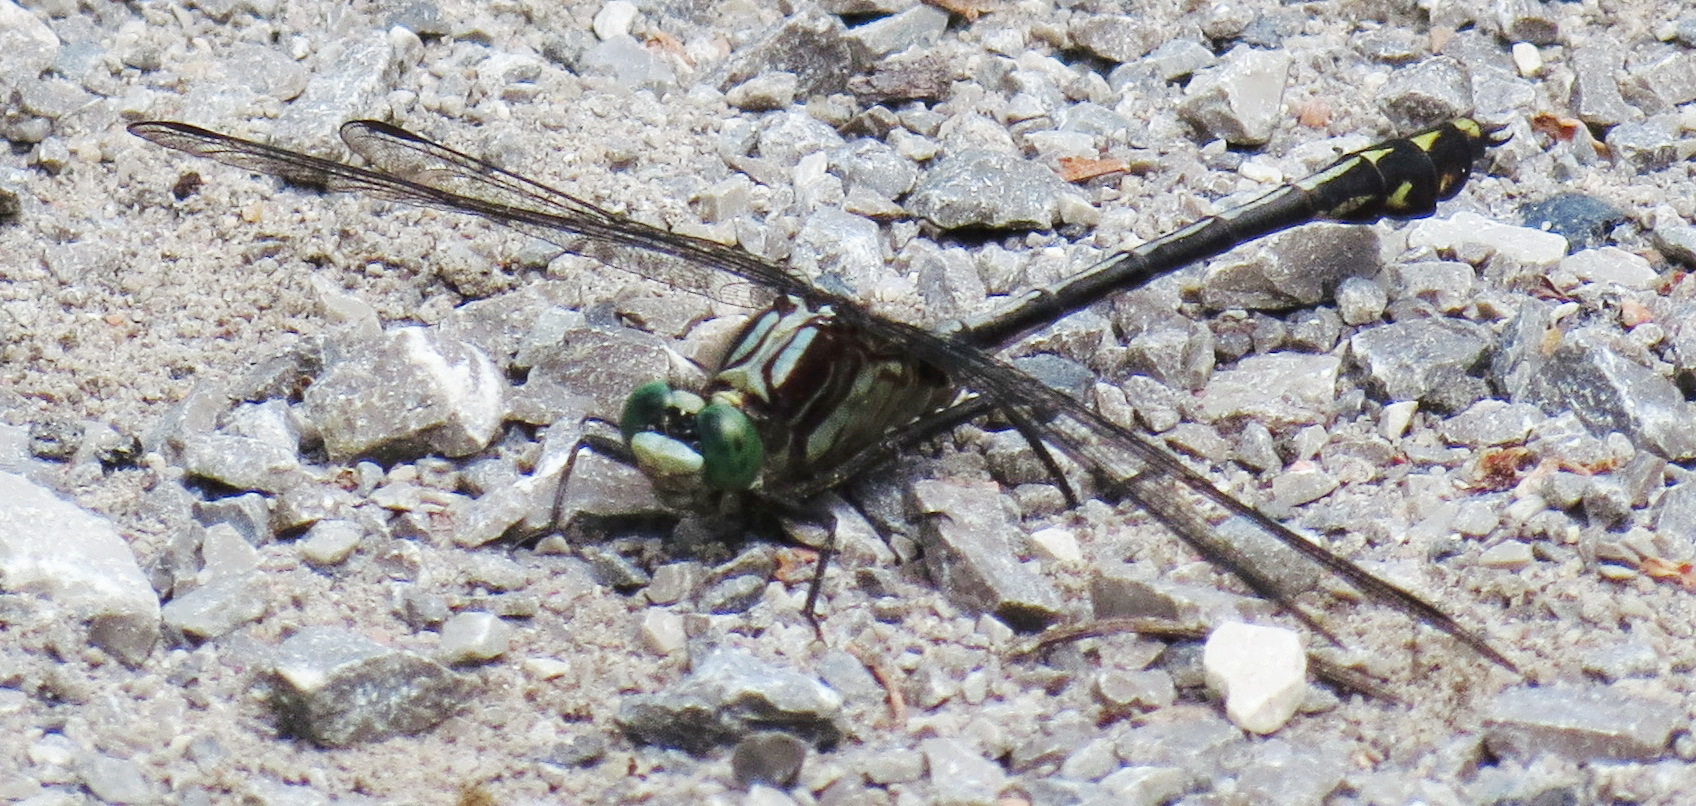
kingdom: Animalia
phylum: Arthropoda
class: Insecta
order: Odonata
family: Gomphidae
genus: Dromogomphus
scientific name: Dromogomphus spinosus
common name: Black-shouldered spinyleg
